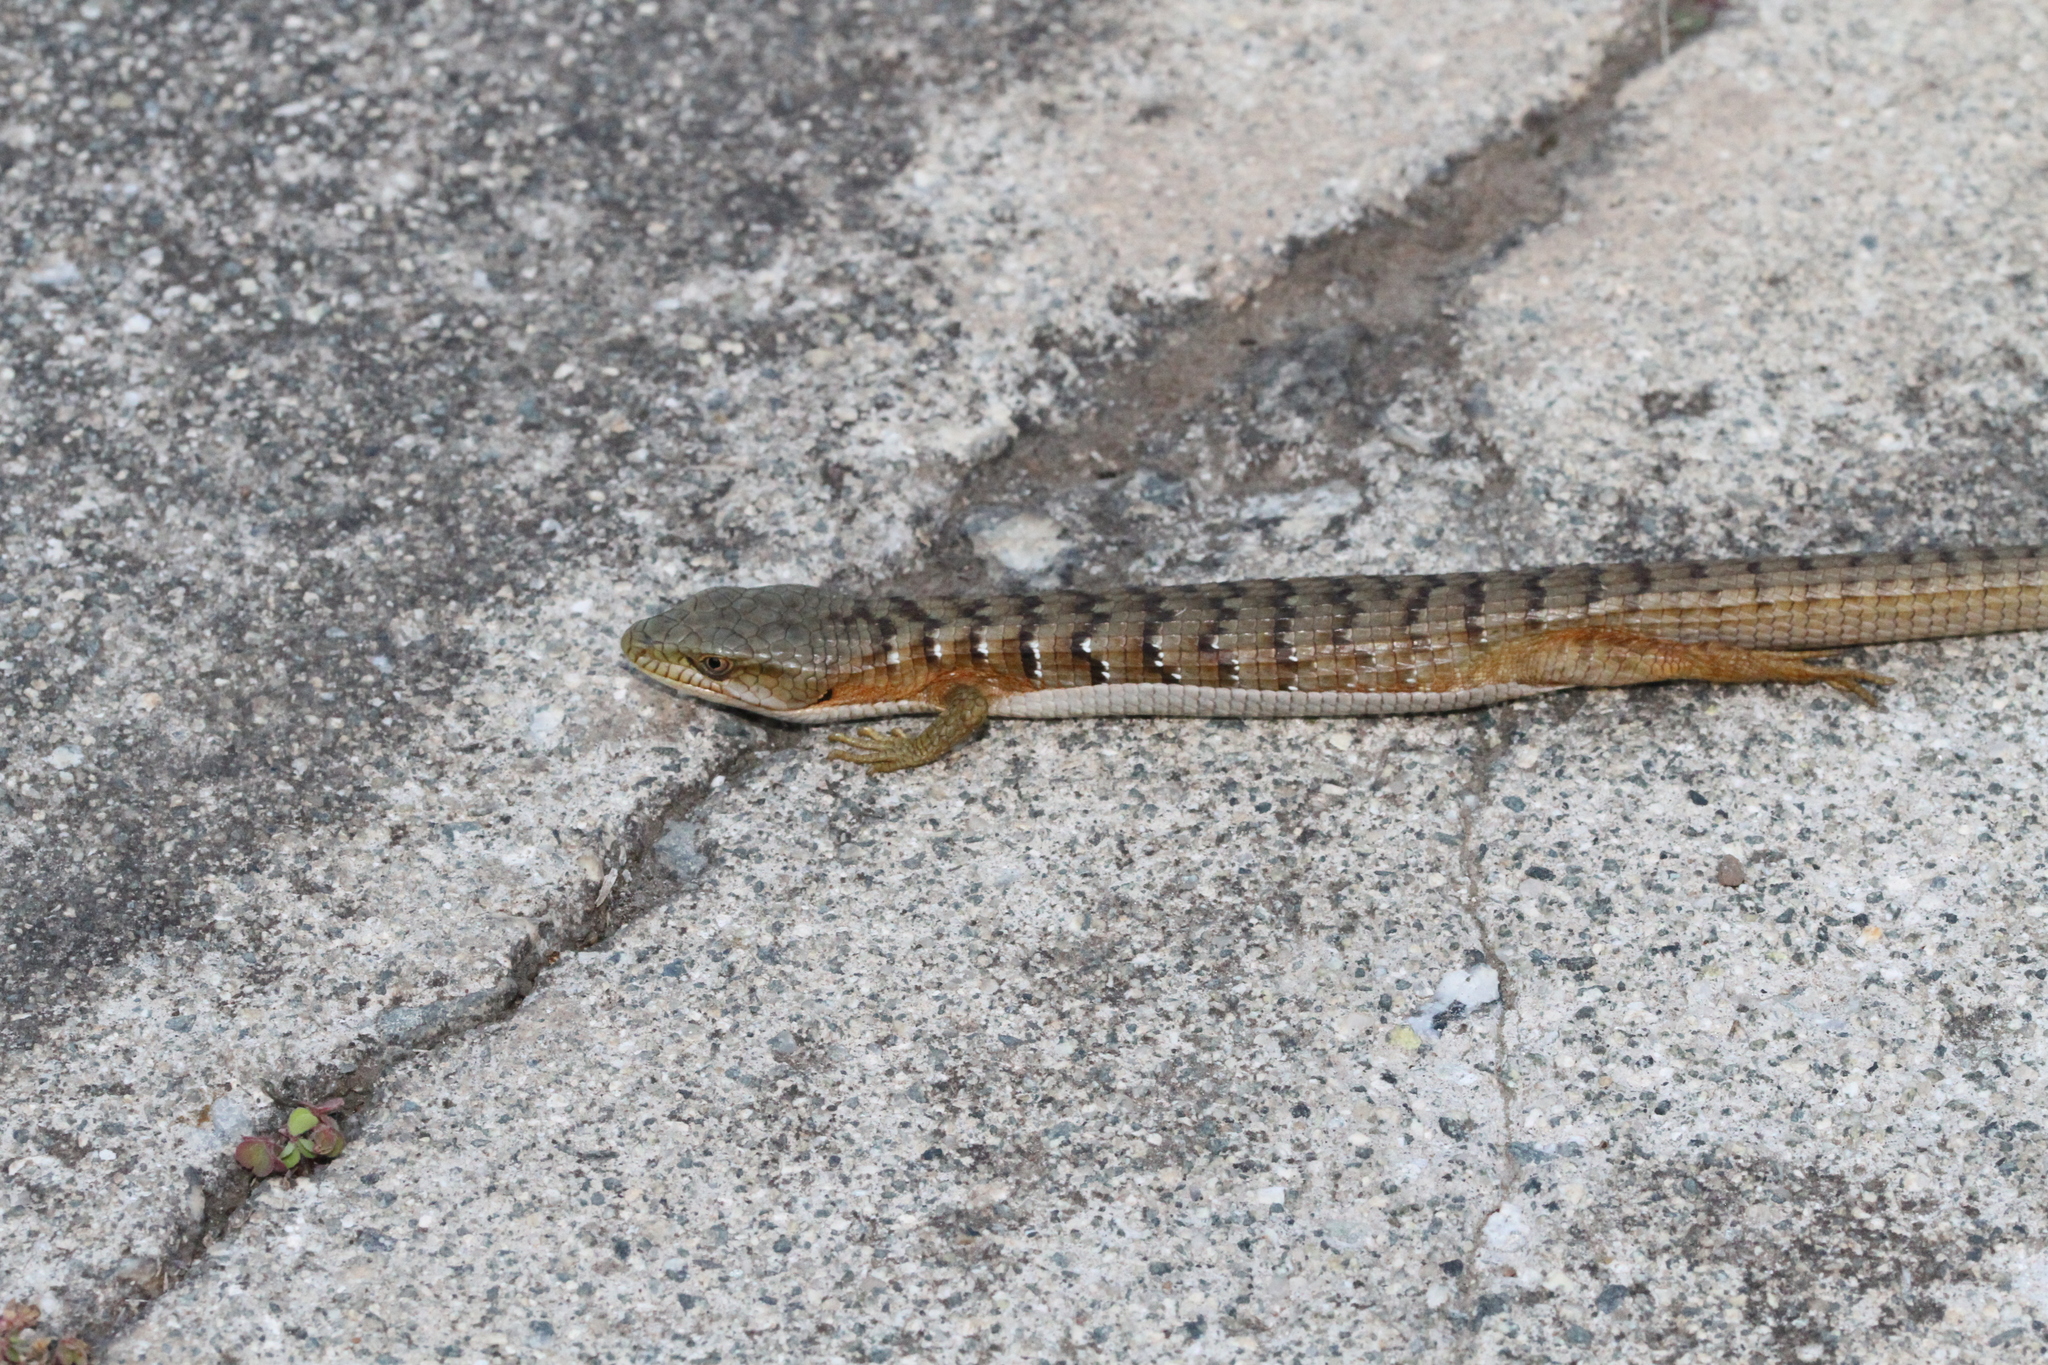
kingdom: Animalia
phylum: Chordata
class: Squamata
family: Anguidae
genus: Elgaria
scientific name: Elgaria multicarinata
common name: Southern alligator lizard
